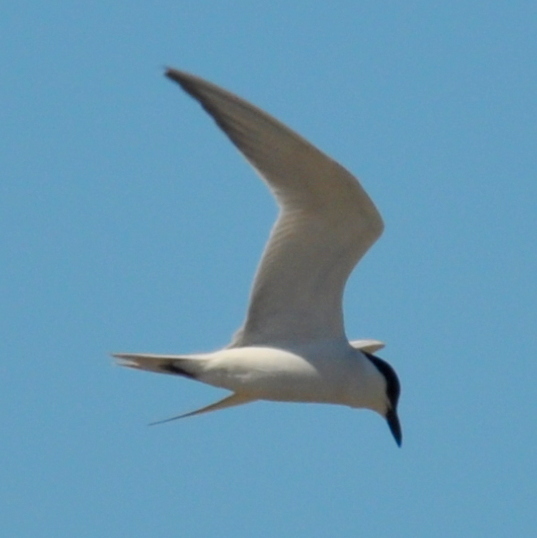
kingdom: Animalia
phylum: Chordata
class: Aves
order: Charadriiformes
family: Laridae
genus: Gelochelidon
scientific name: Gelochelidon nilotica
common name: Gull-billed tern
